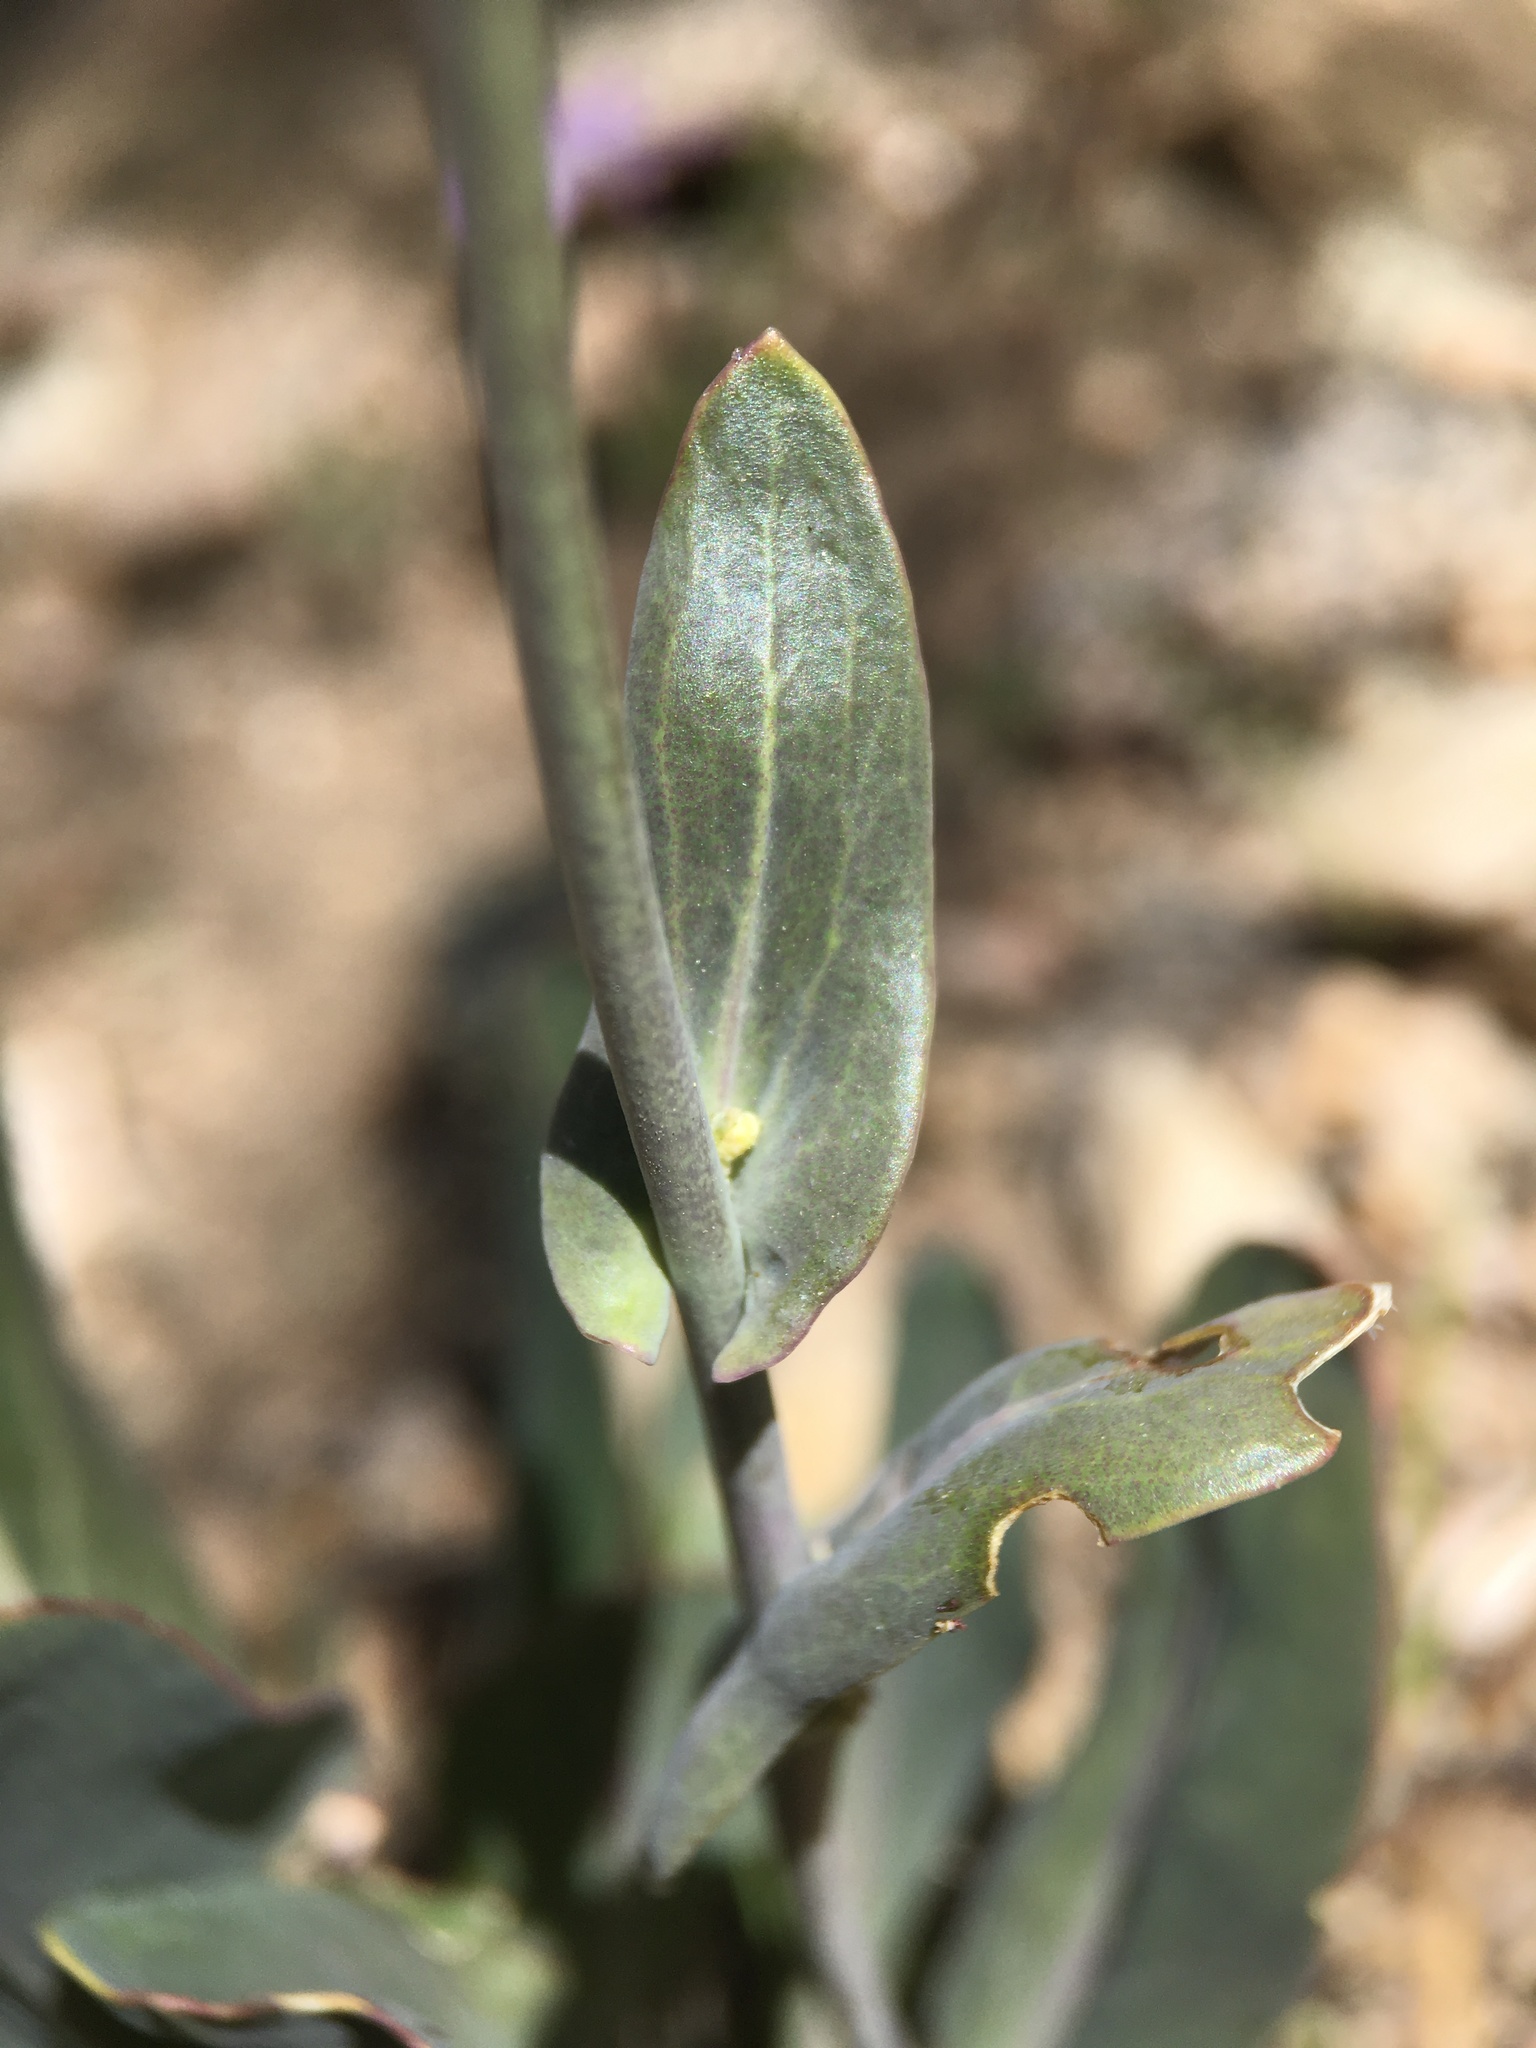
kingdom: Plantae
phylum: Tracheophyta
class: Magnoliopsida
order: Brassicales
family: Brassicaceae
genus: Streptanthus
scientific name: Streptanthus cordatus
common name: Heart-leaf jewel-flower
